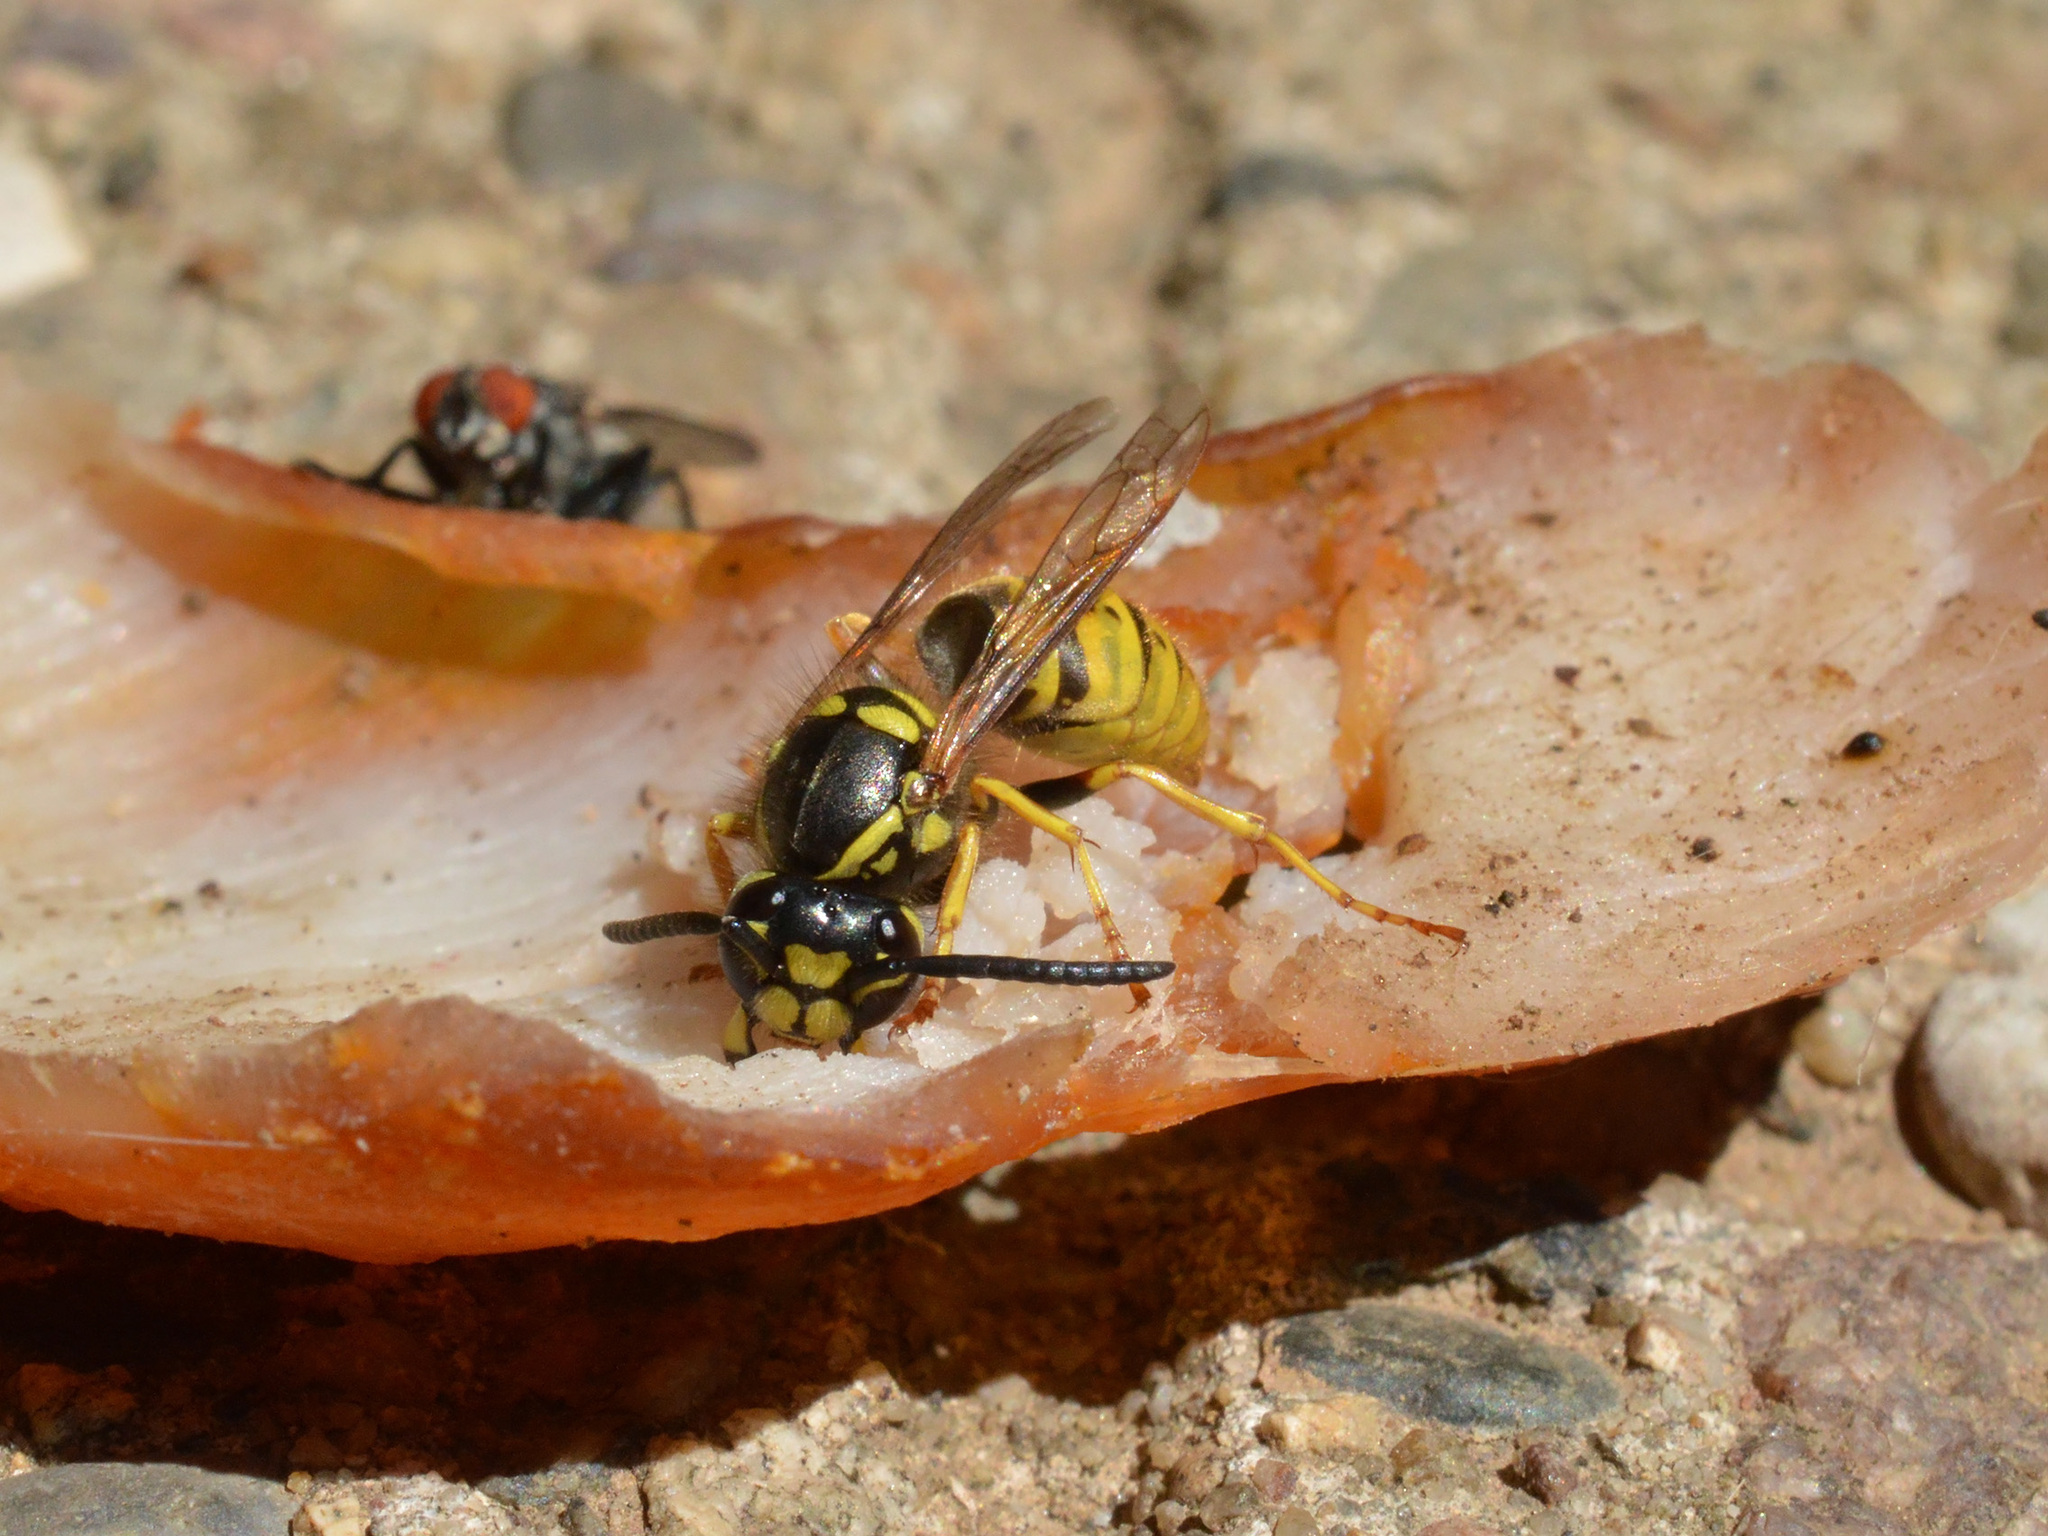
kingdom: Animalia
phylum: Arthropoda
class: Insecta
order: Hymenoptera
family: Vespidae
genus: Vespula
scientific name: Vespula vulgaris
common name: Common wasp
